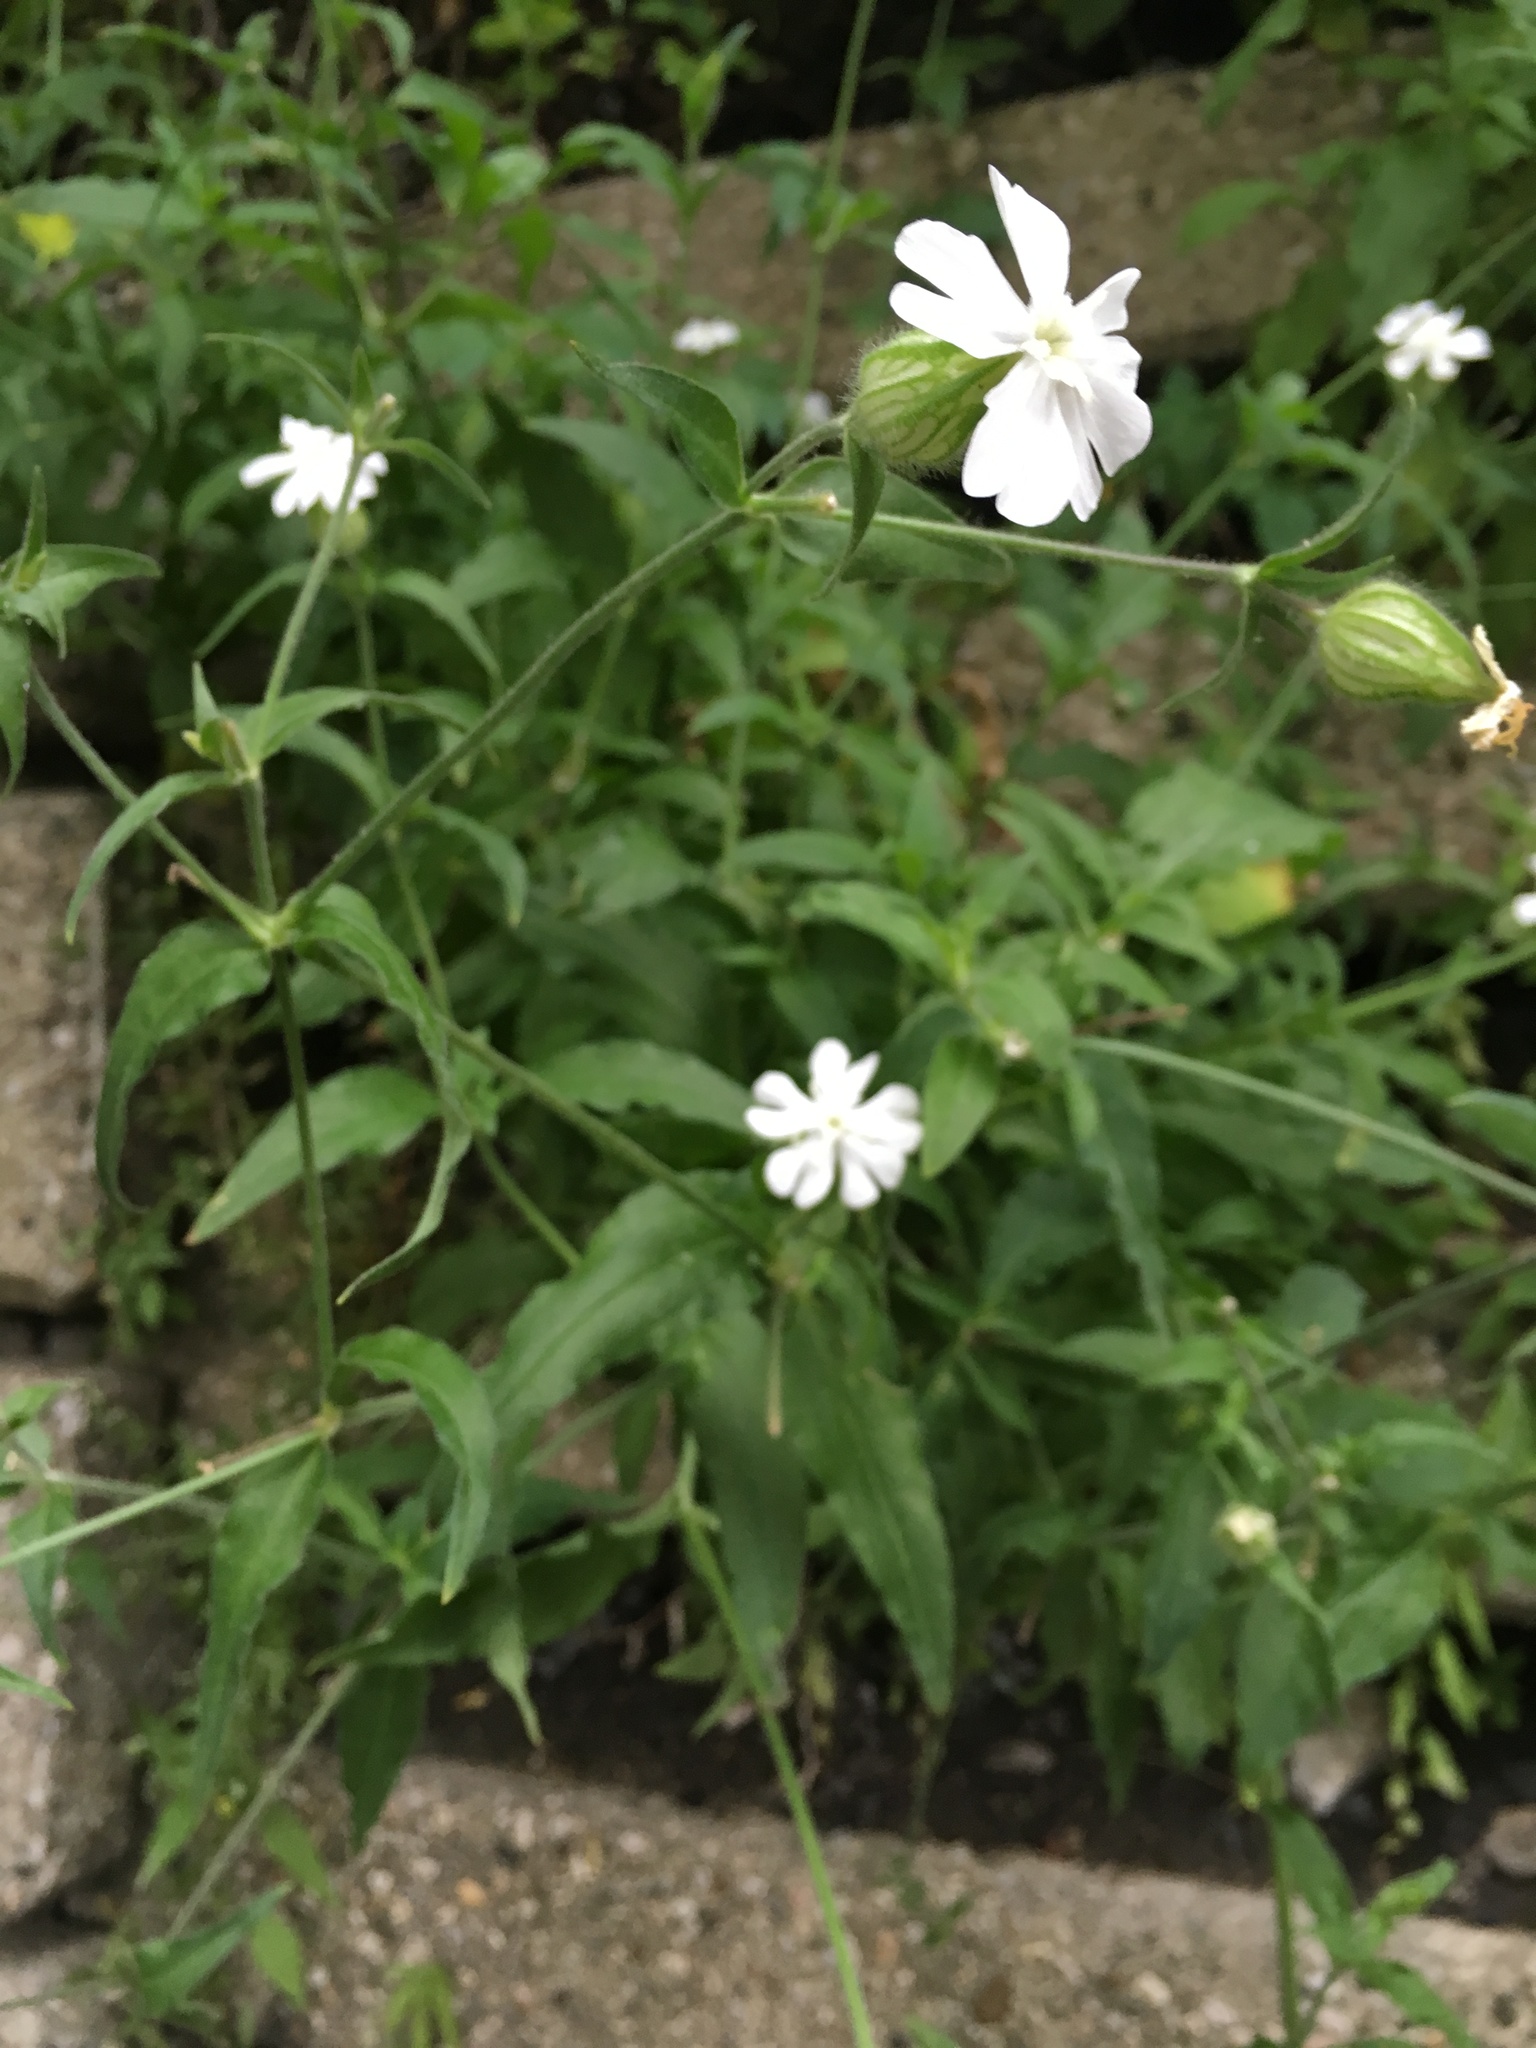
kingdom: Plantae
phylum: Tracheophyta
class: Magnoliopsida
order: Caryophyllales
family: Caryophyllaceae
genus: Silene
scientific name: Silene latifolia
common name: White campion
